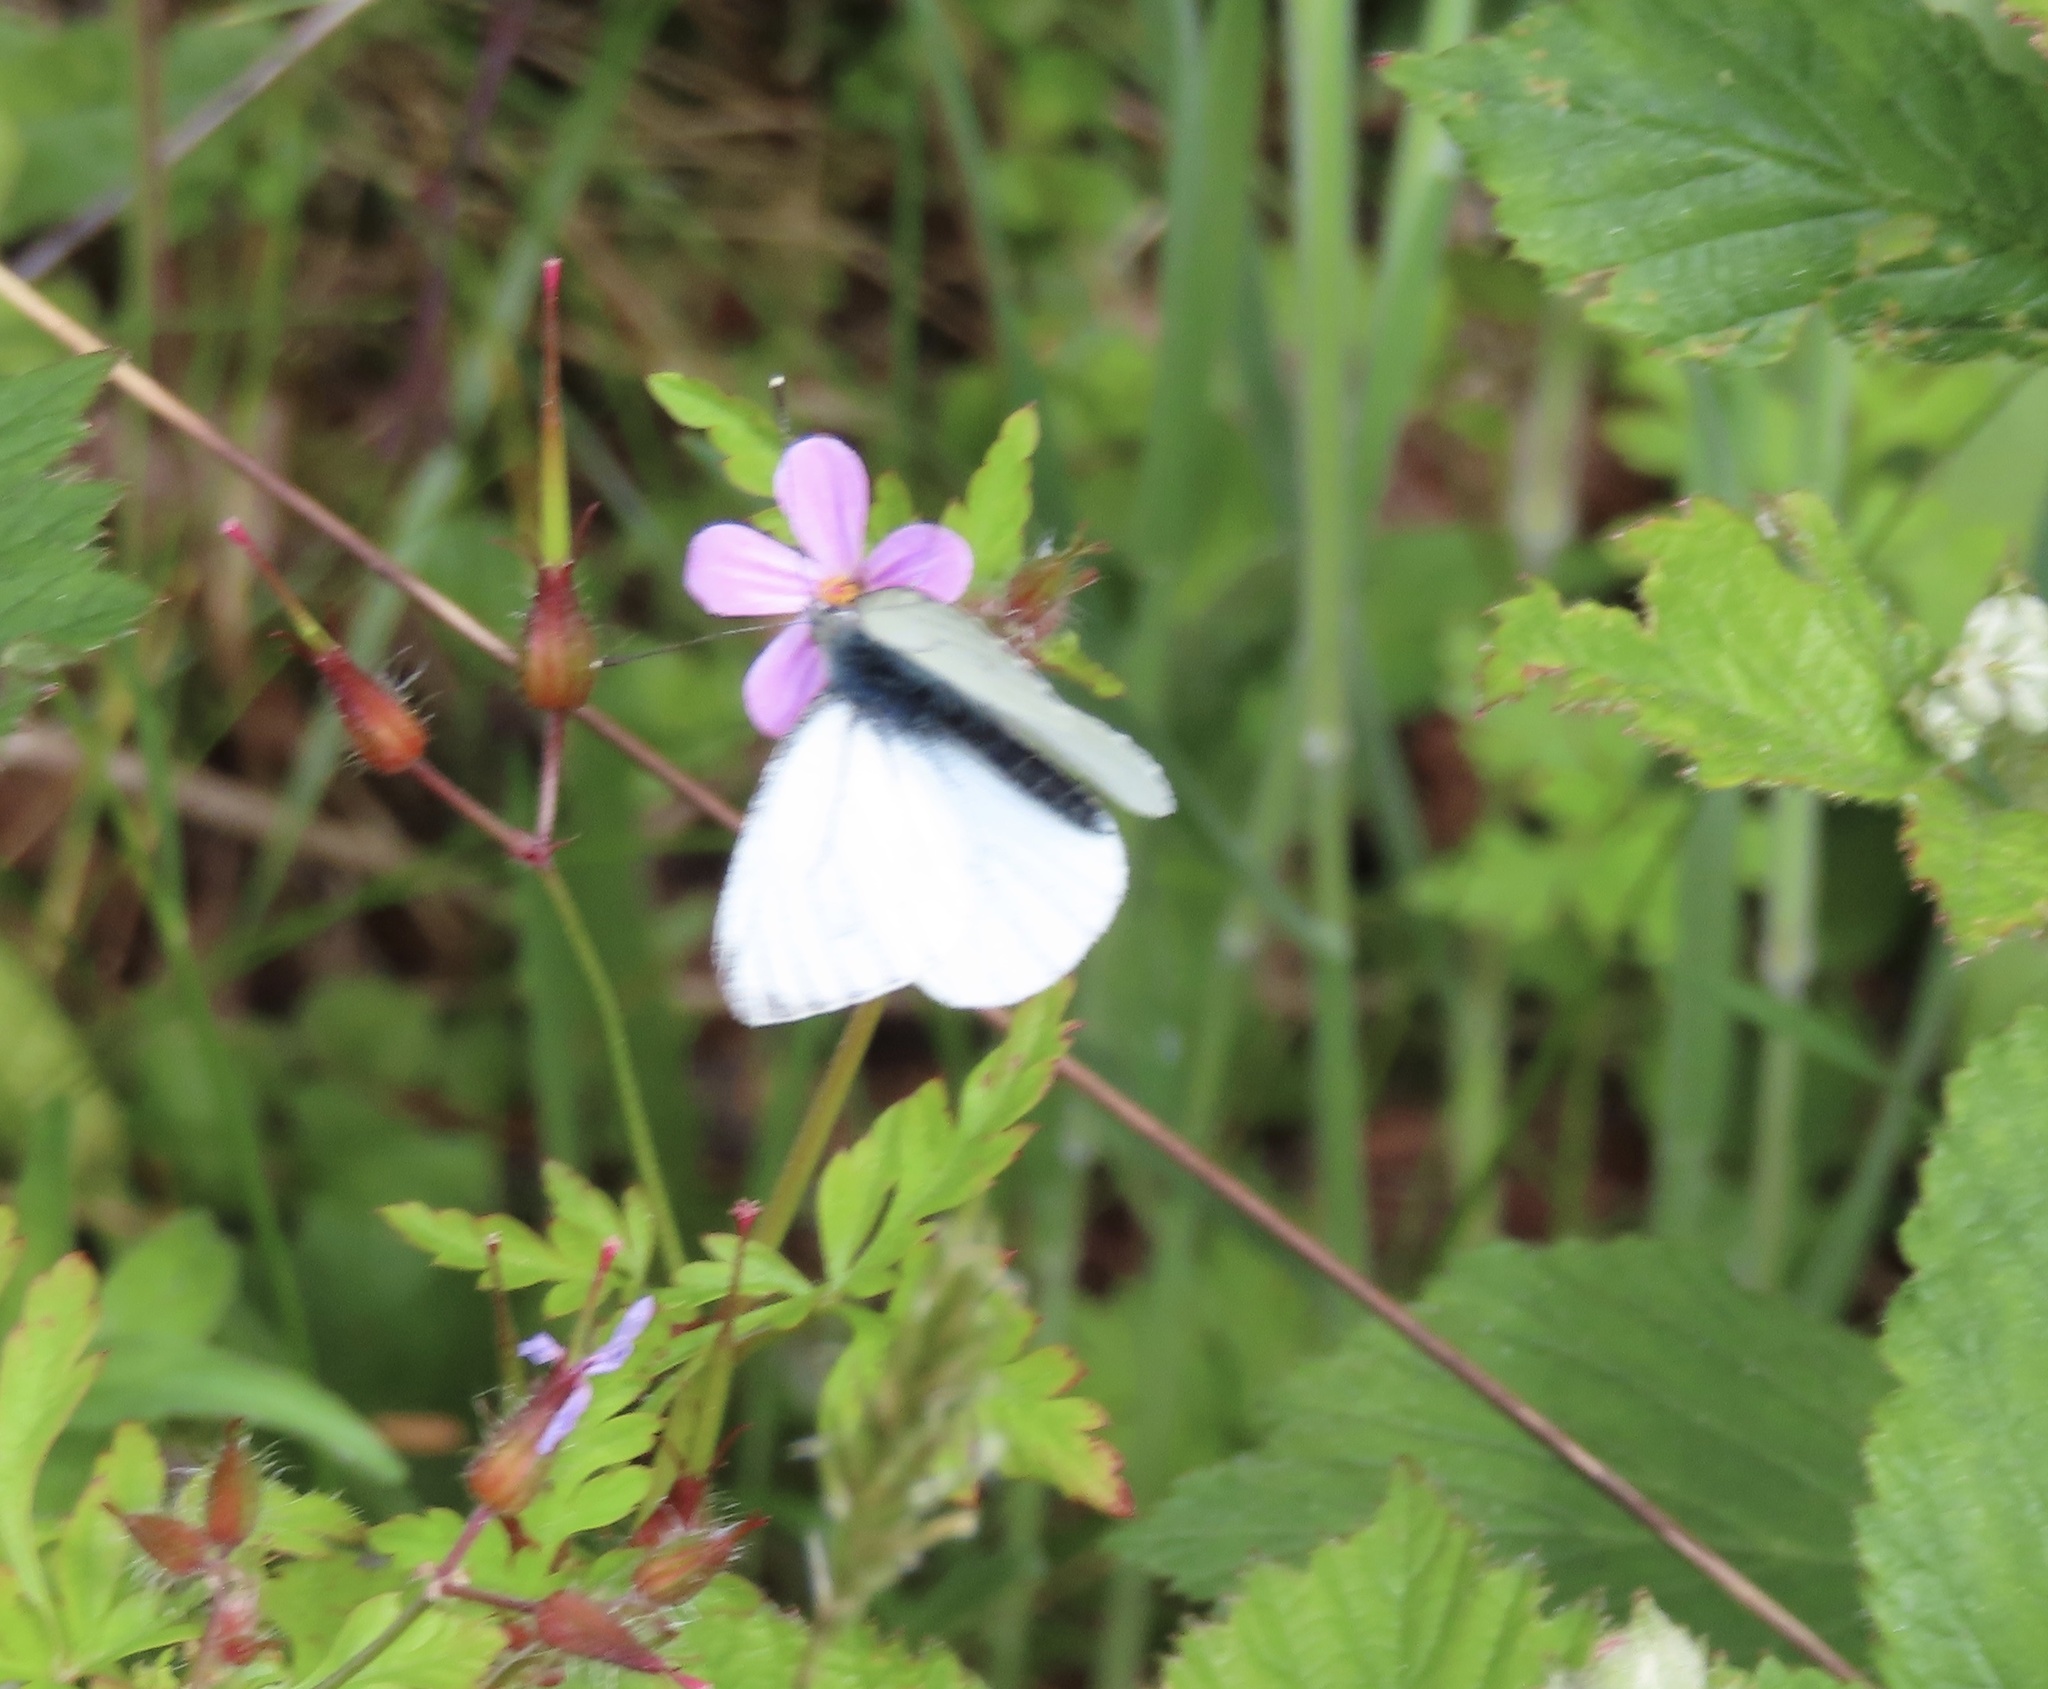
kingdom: Animalia
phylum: Arthropoda
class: Insecta
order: Lepidoptera
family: Pieridae
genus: Pieris
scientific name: Pieris napi
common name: Green-veined white
